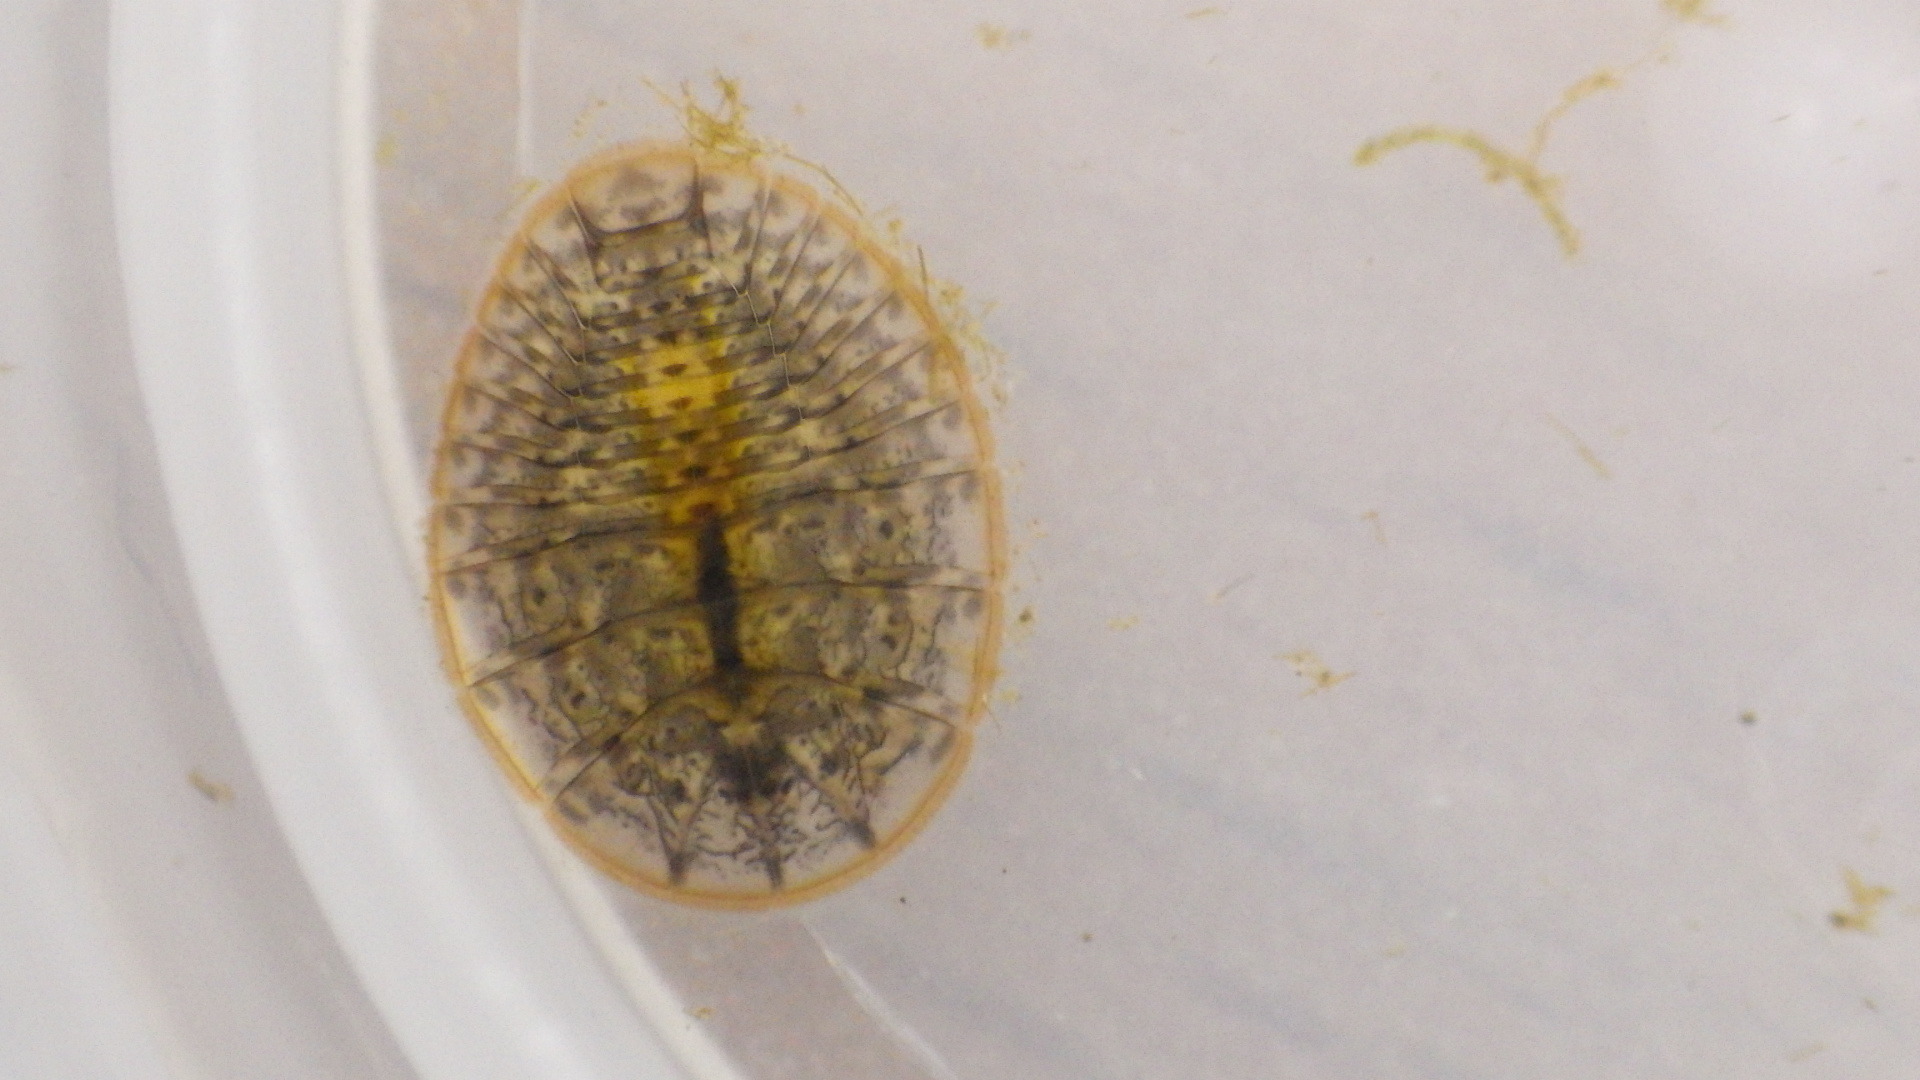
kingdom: Animalia
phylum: Arthropoda
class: Insecta
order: Coleoptera
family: Psephenidae
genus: Psephenus
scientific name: Psephenus herricki
